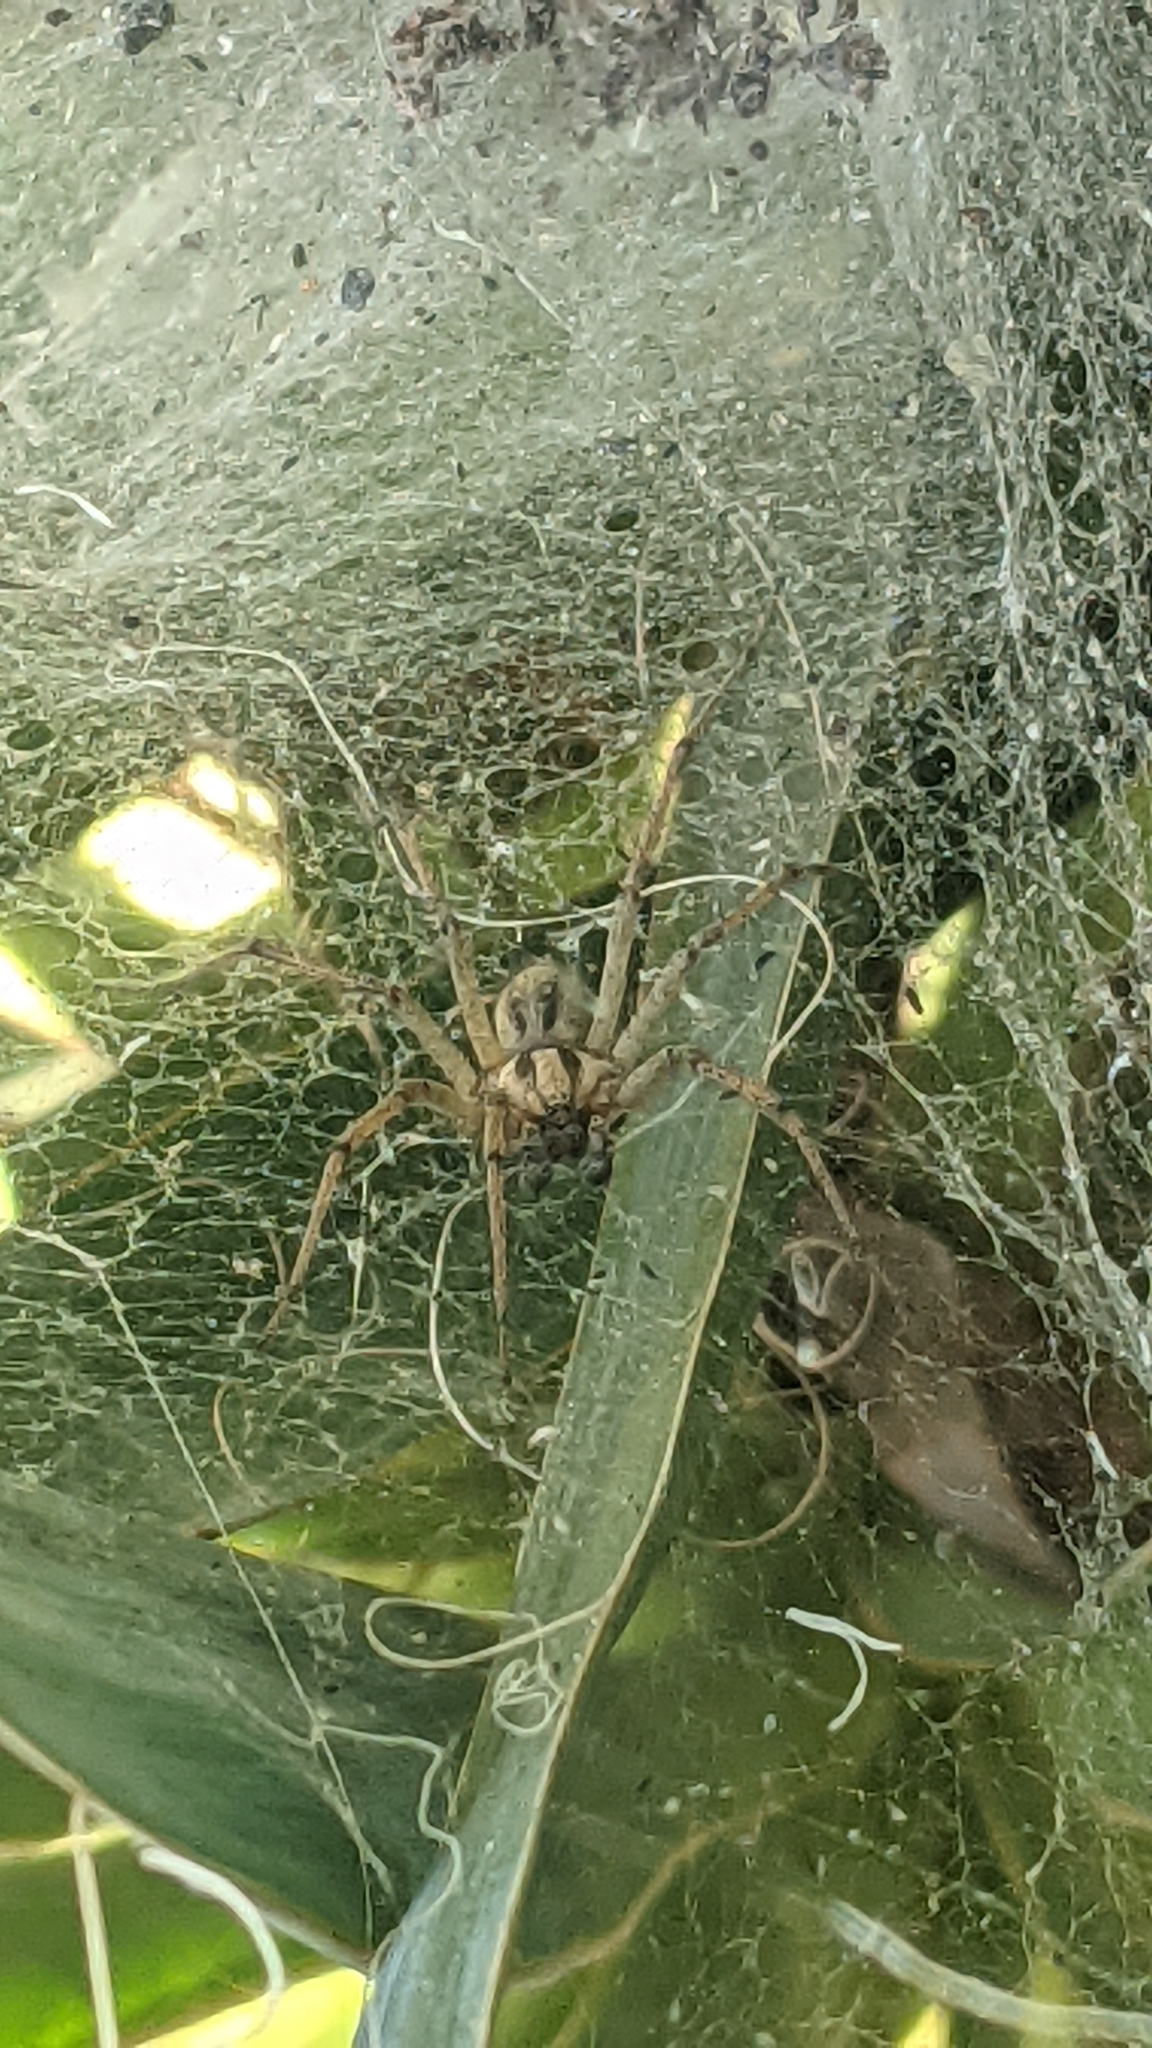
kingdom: Animalia
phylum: Arthropoda
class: Arachnida
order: Araneae
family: Agelenidae
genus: Agelena
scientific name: Agelena labyrinthica
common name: Labyrinth spider
